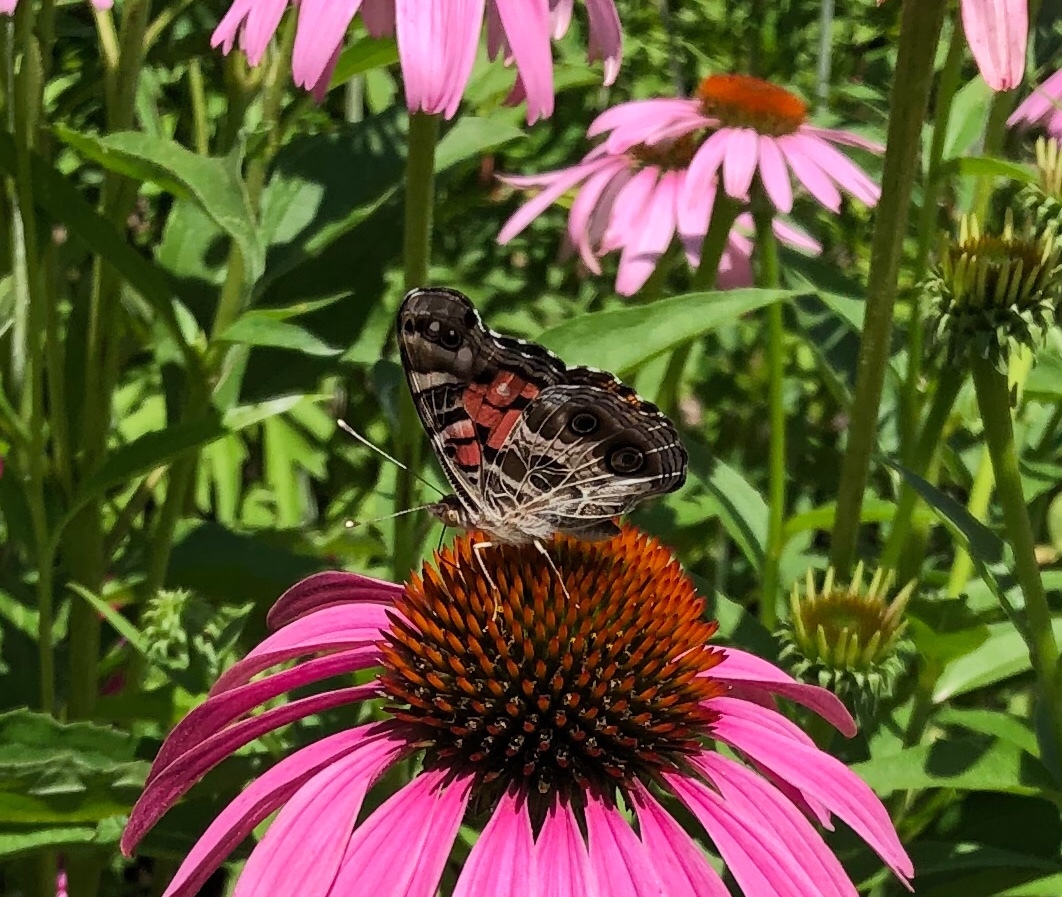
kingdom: Animalia
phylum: Arthropoda
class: Insecta
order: Lepidoptera
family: Nymphalidae
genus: Vanessa
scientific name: Vanessa virginiensis
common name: American lady
